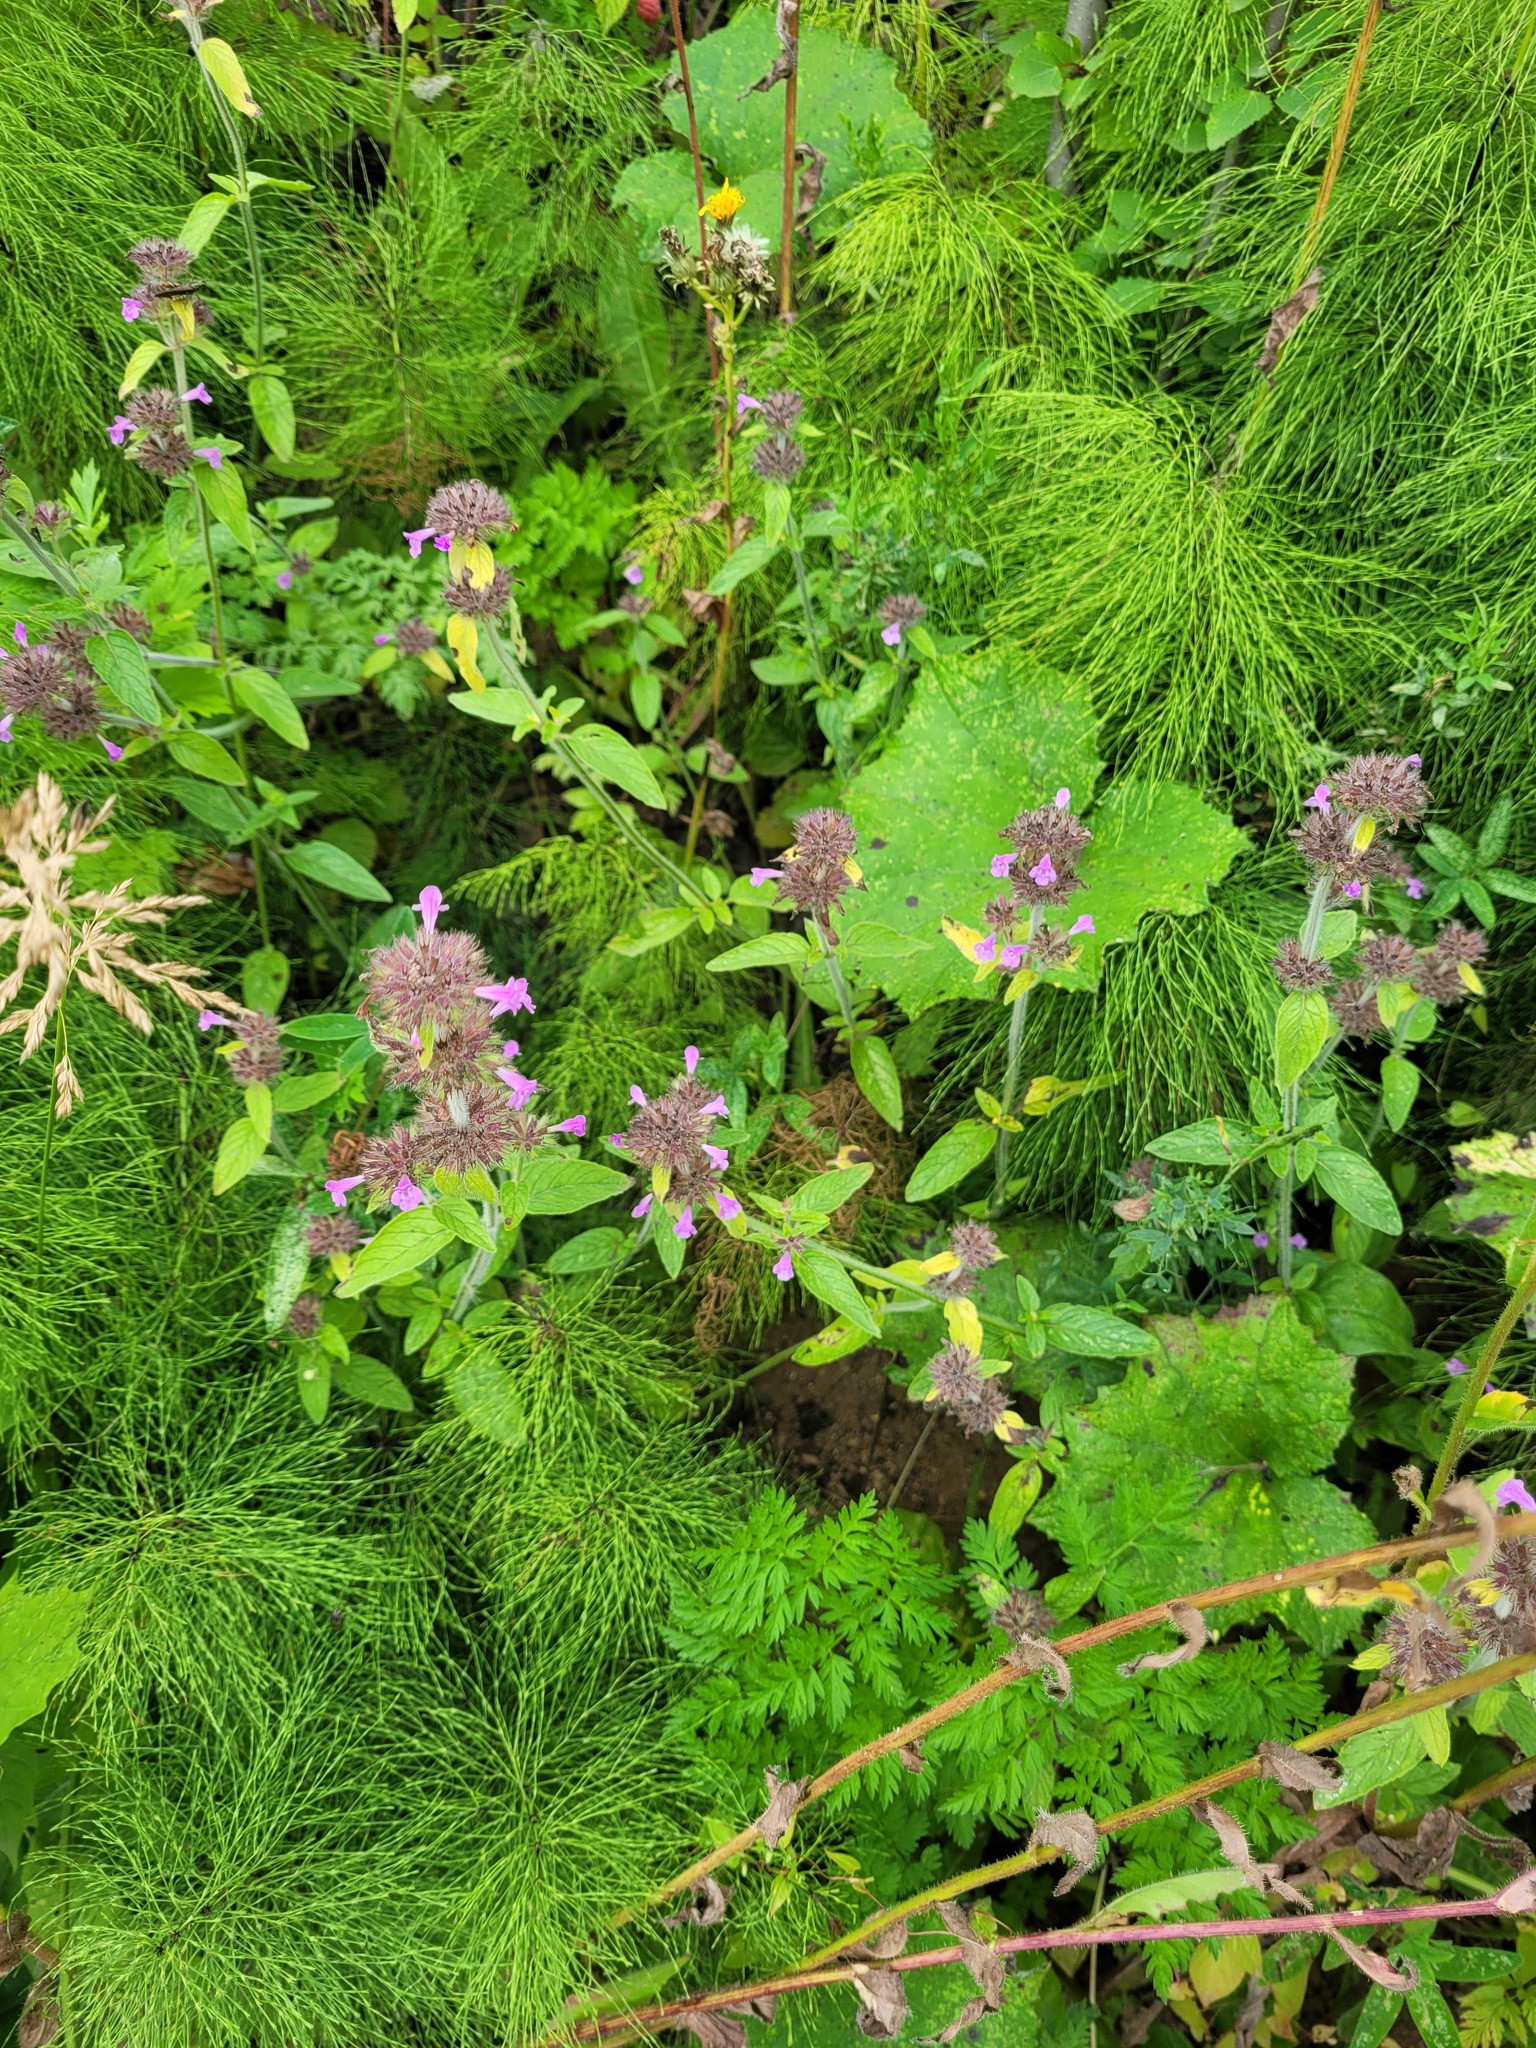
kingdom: Plantae
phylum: Tracheophyta
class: Magnoliopsida
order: Lamiales
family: Lamiaceae
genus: Clinopodium
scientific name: Clinopodium vulgare
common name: Wild basil
